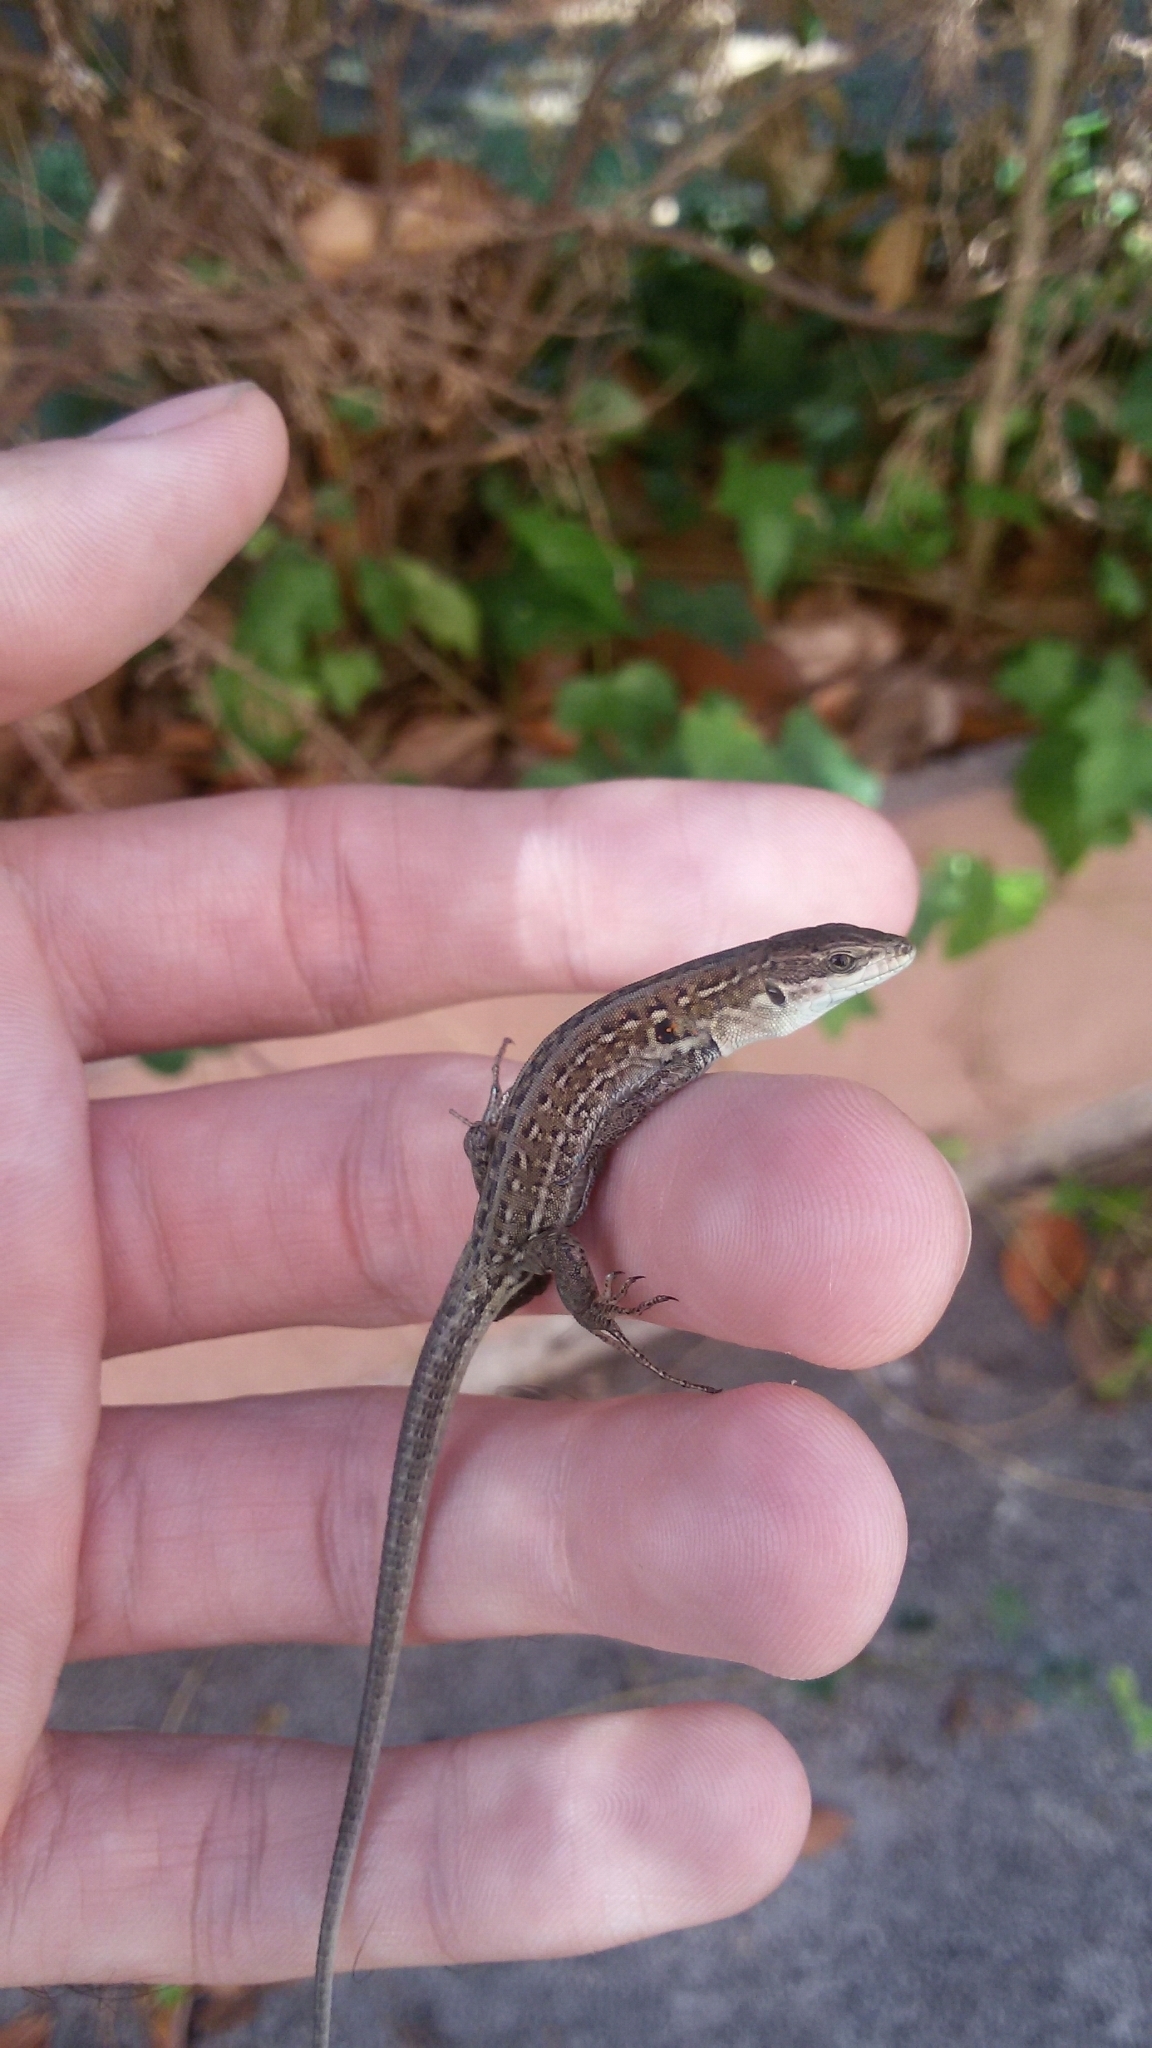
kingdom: Animalia
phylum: Chordata
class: Squamata
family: Lacertidae
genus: Podarcis
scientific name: Podarcis siculus
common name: Italian wall lizard
